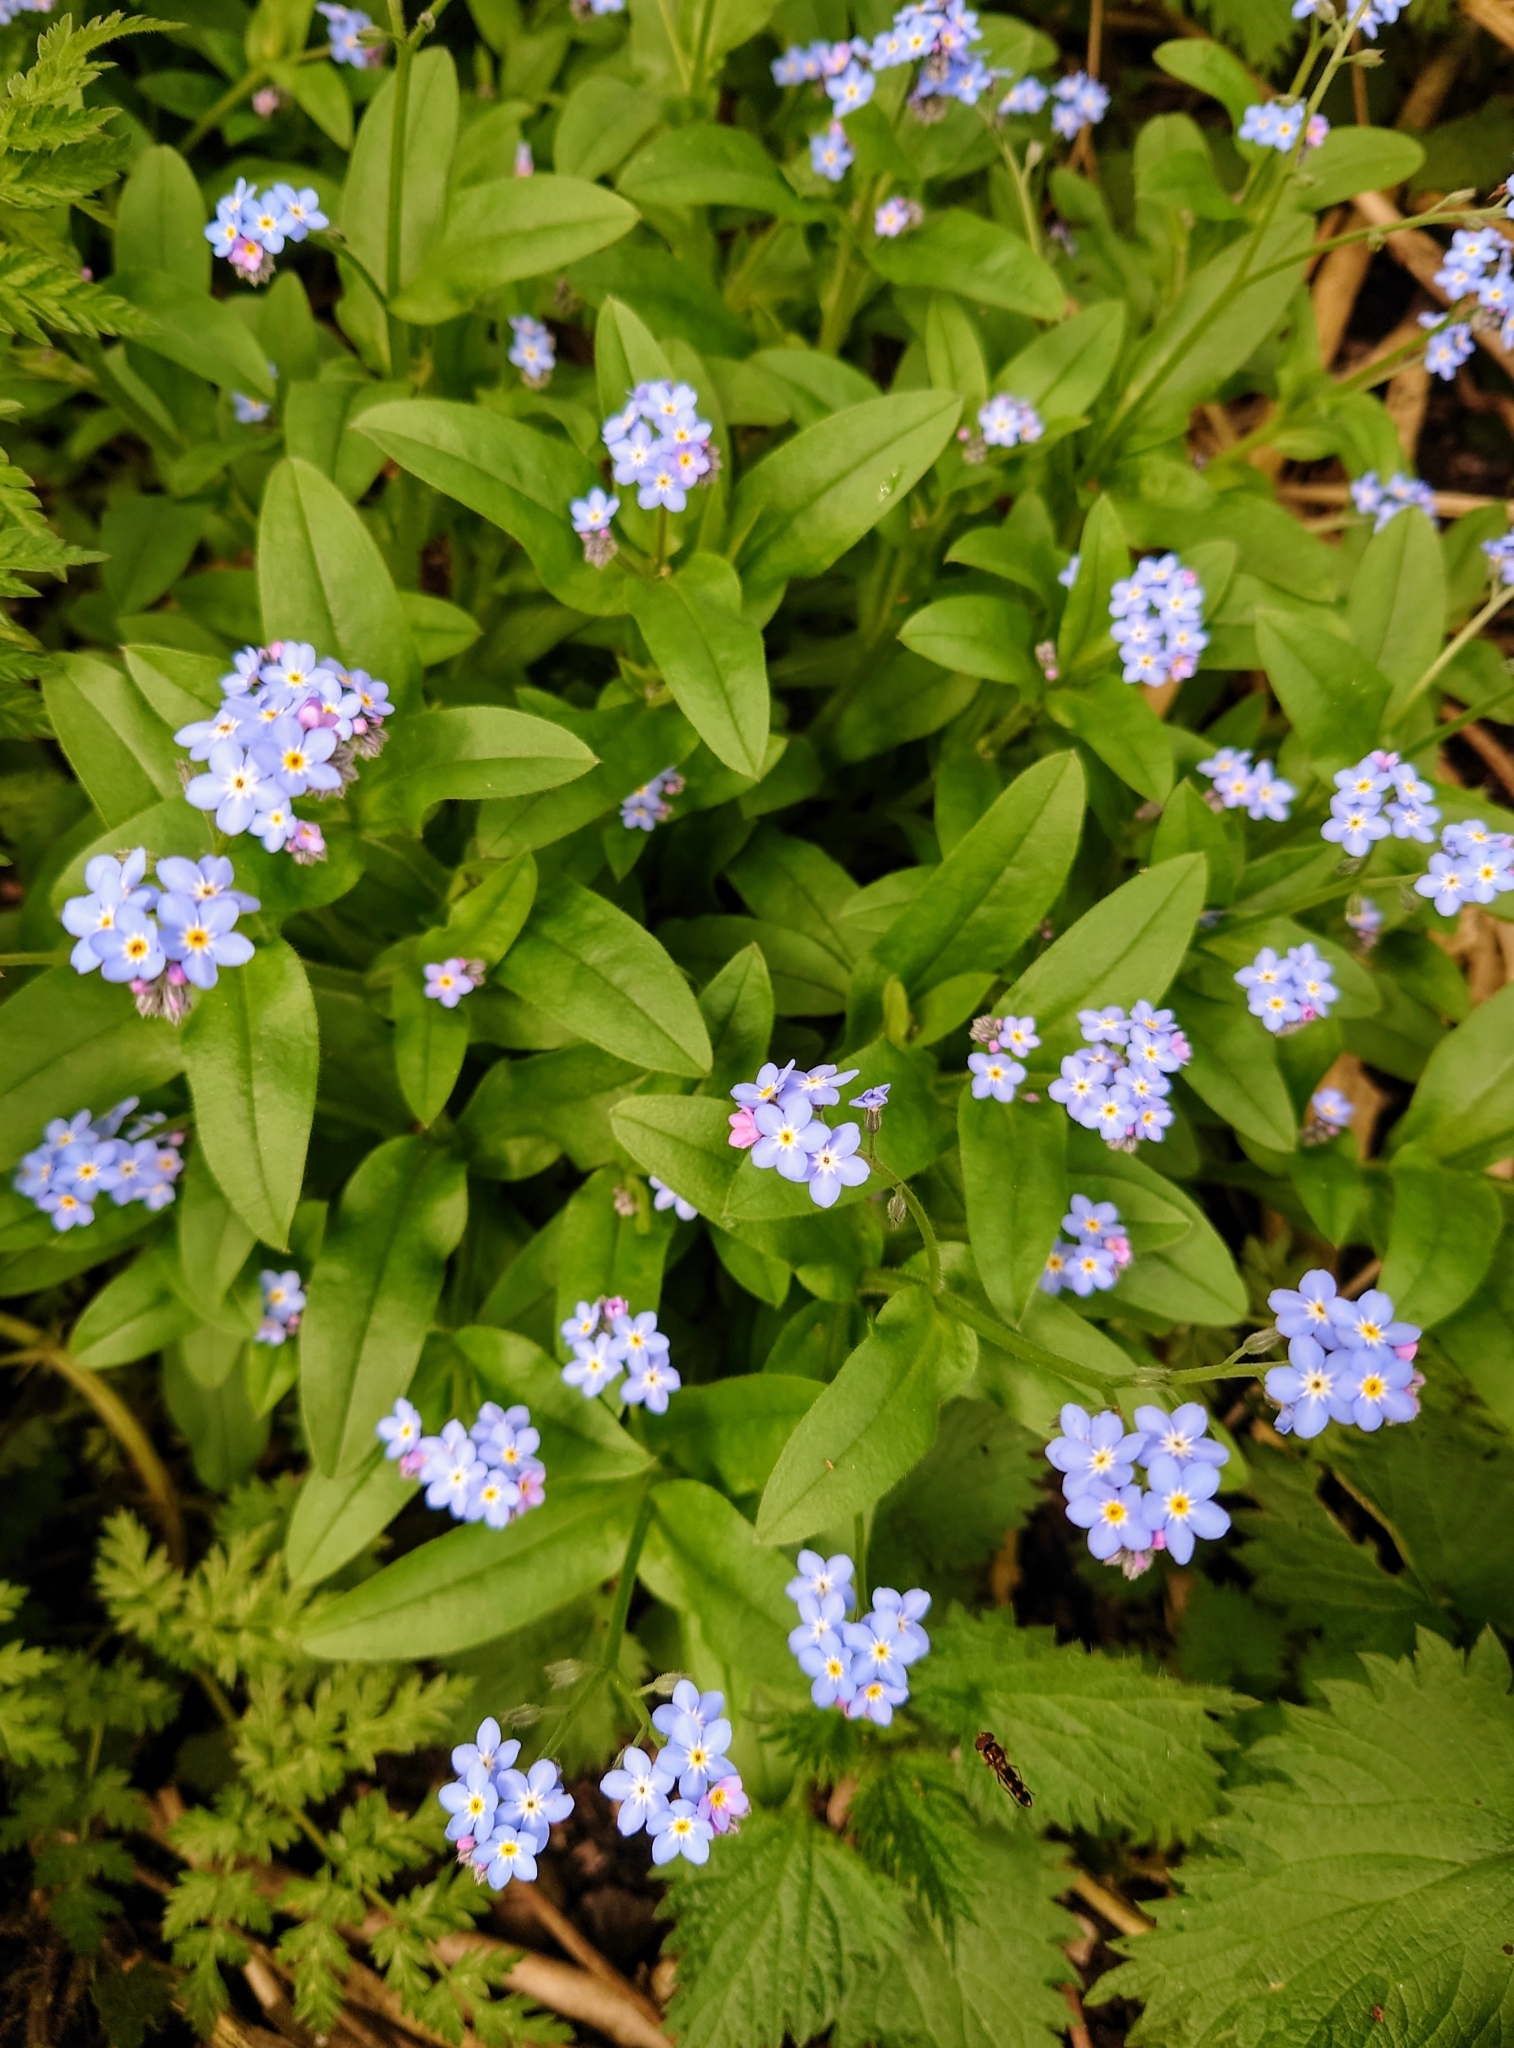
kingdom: Plantae
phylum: Tracheophyta
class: Magnoliopsida
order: Boraginales
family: Boraginaceae
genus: Myosotis
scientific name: Myosotis sylvatica
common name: Wood forget-me-not
